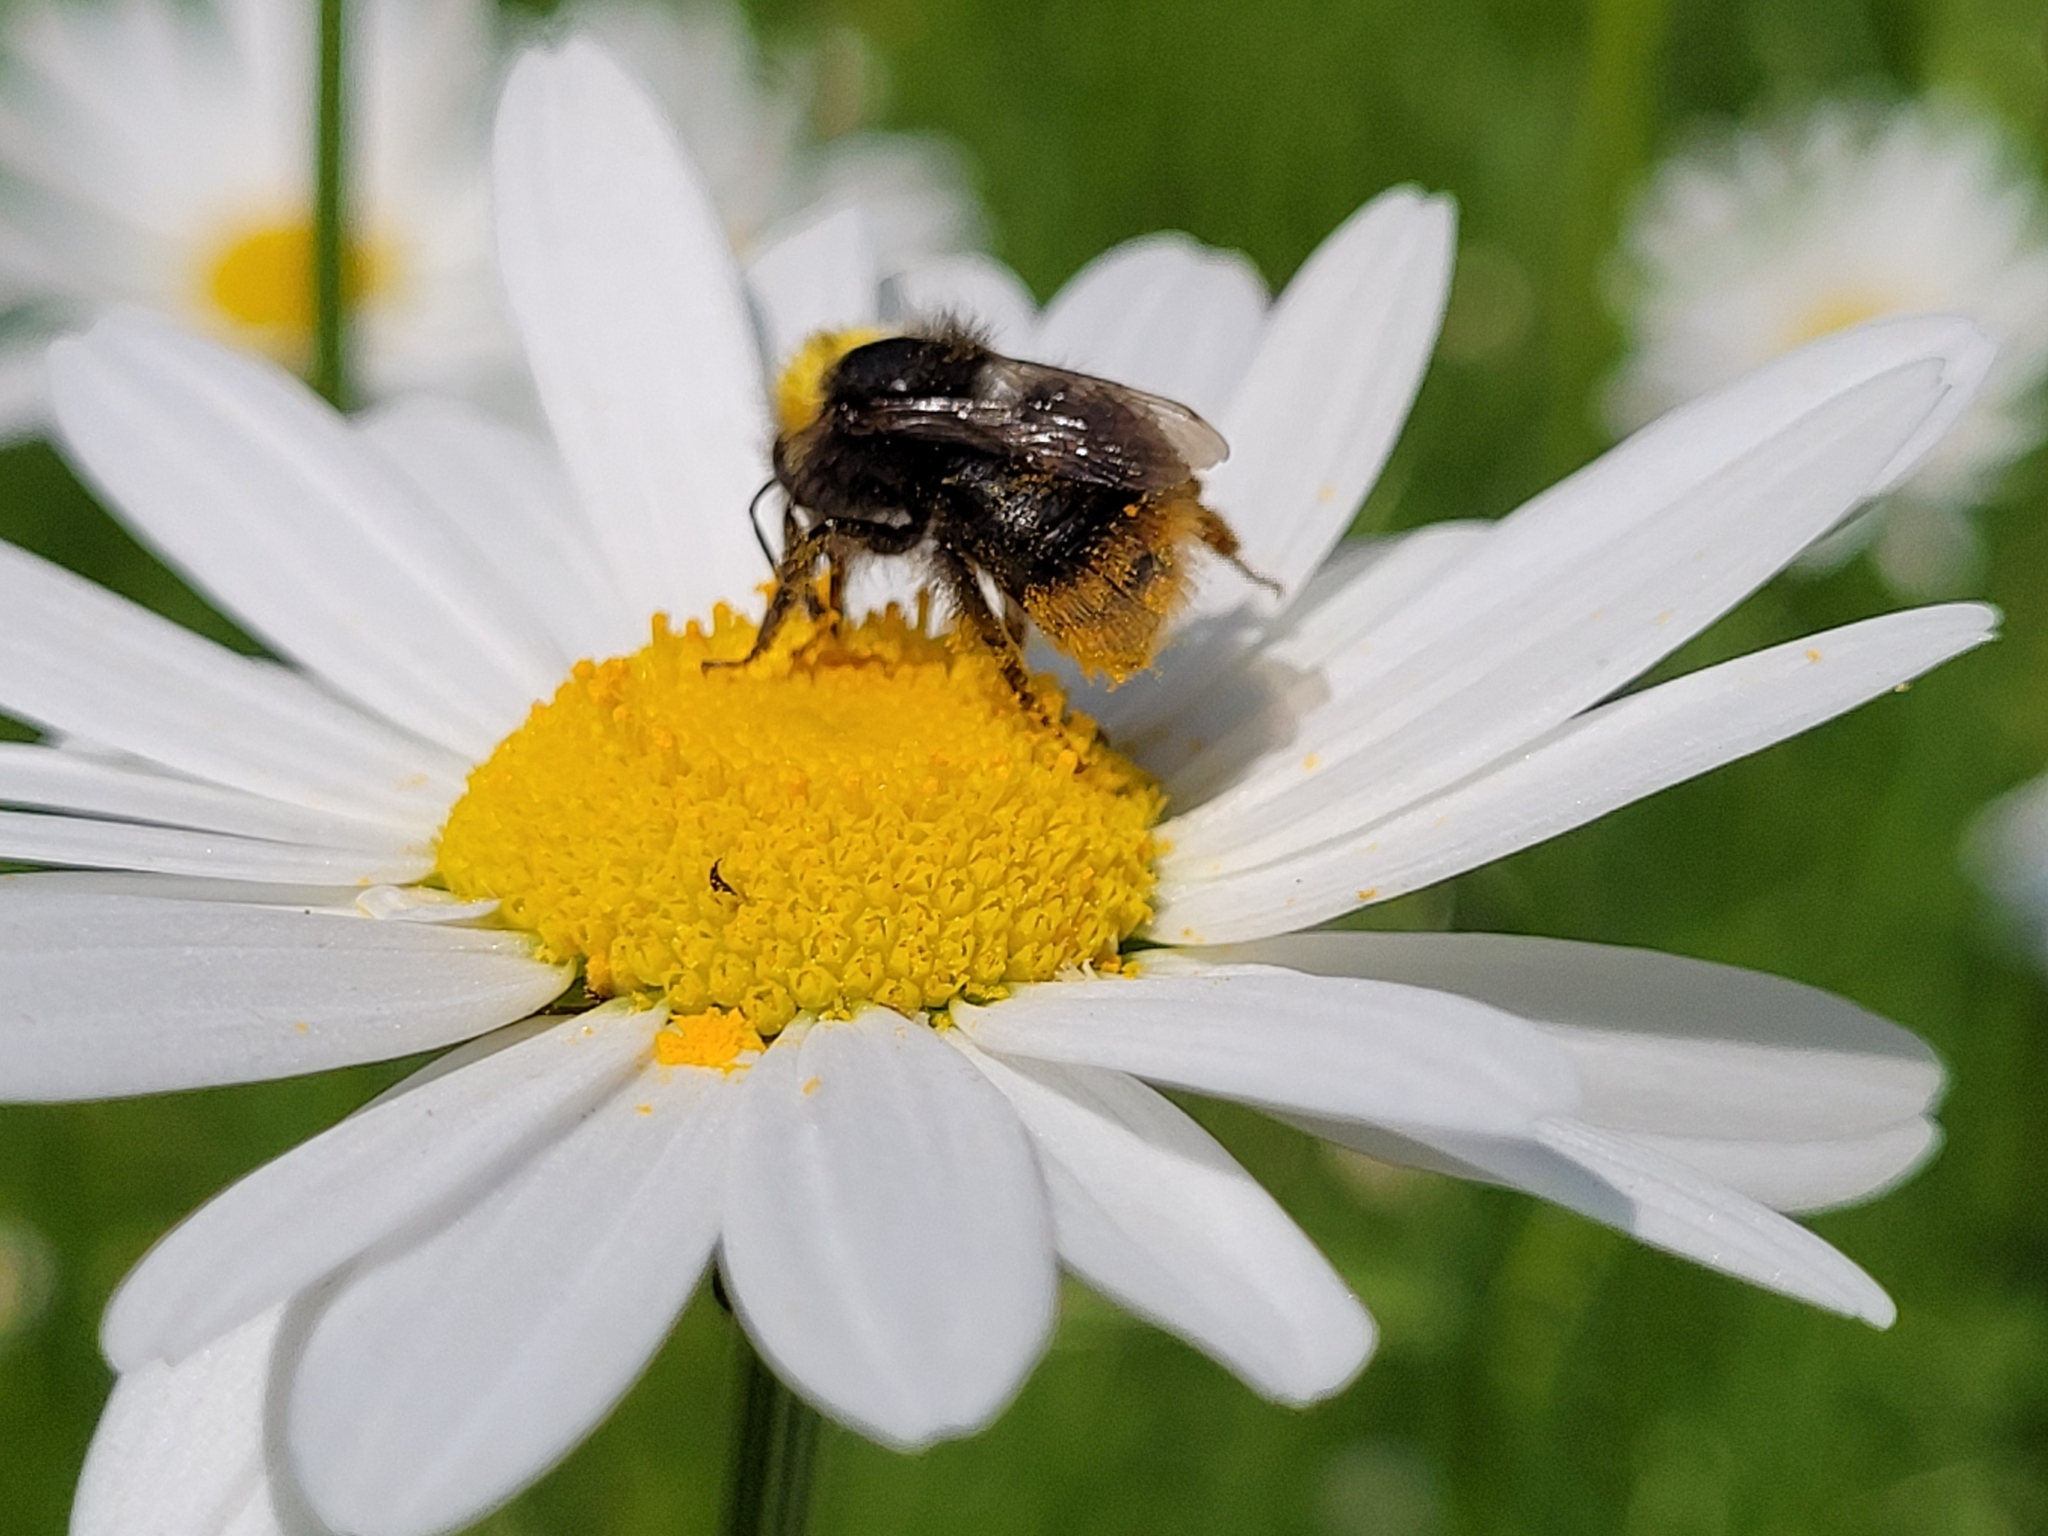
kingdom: Animalia
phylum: Arthropoda
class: Insecta
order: Hymenoptera
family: Apidae
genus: Bombus
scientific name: Bombus pratorum
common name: Early humble-bee
